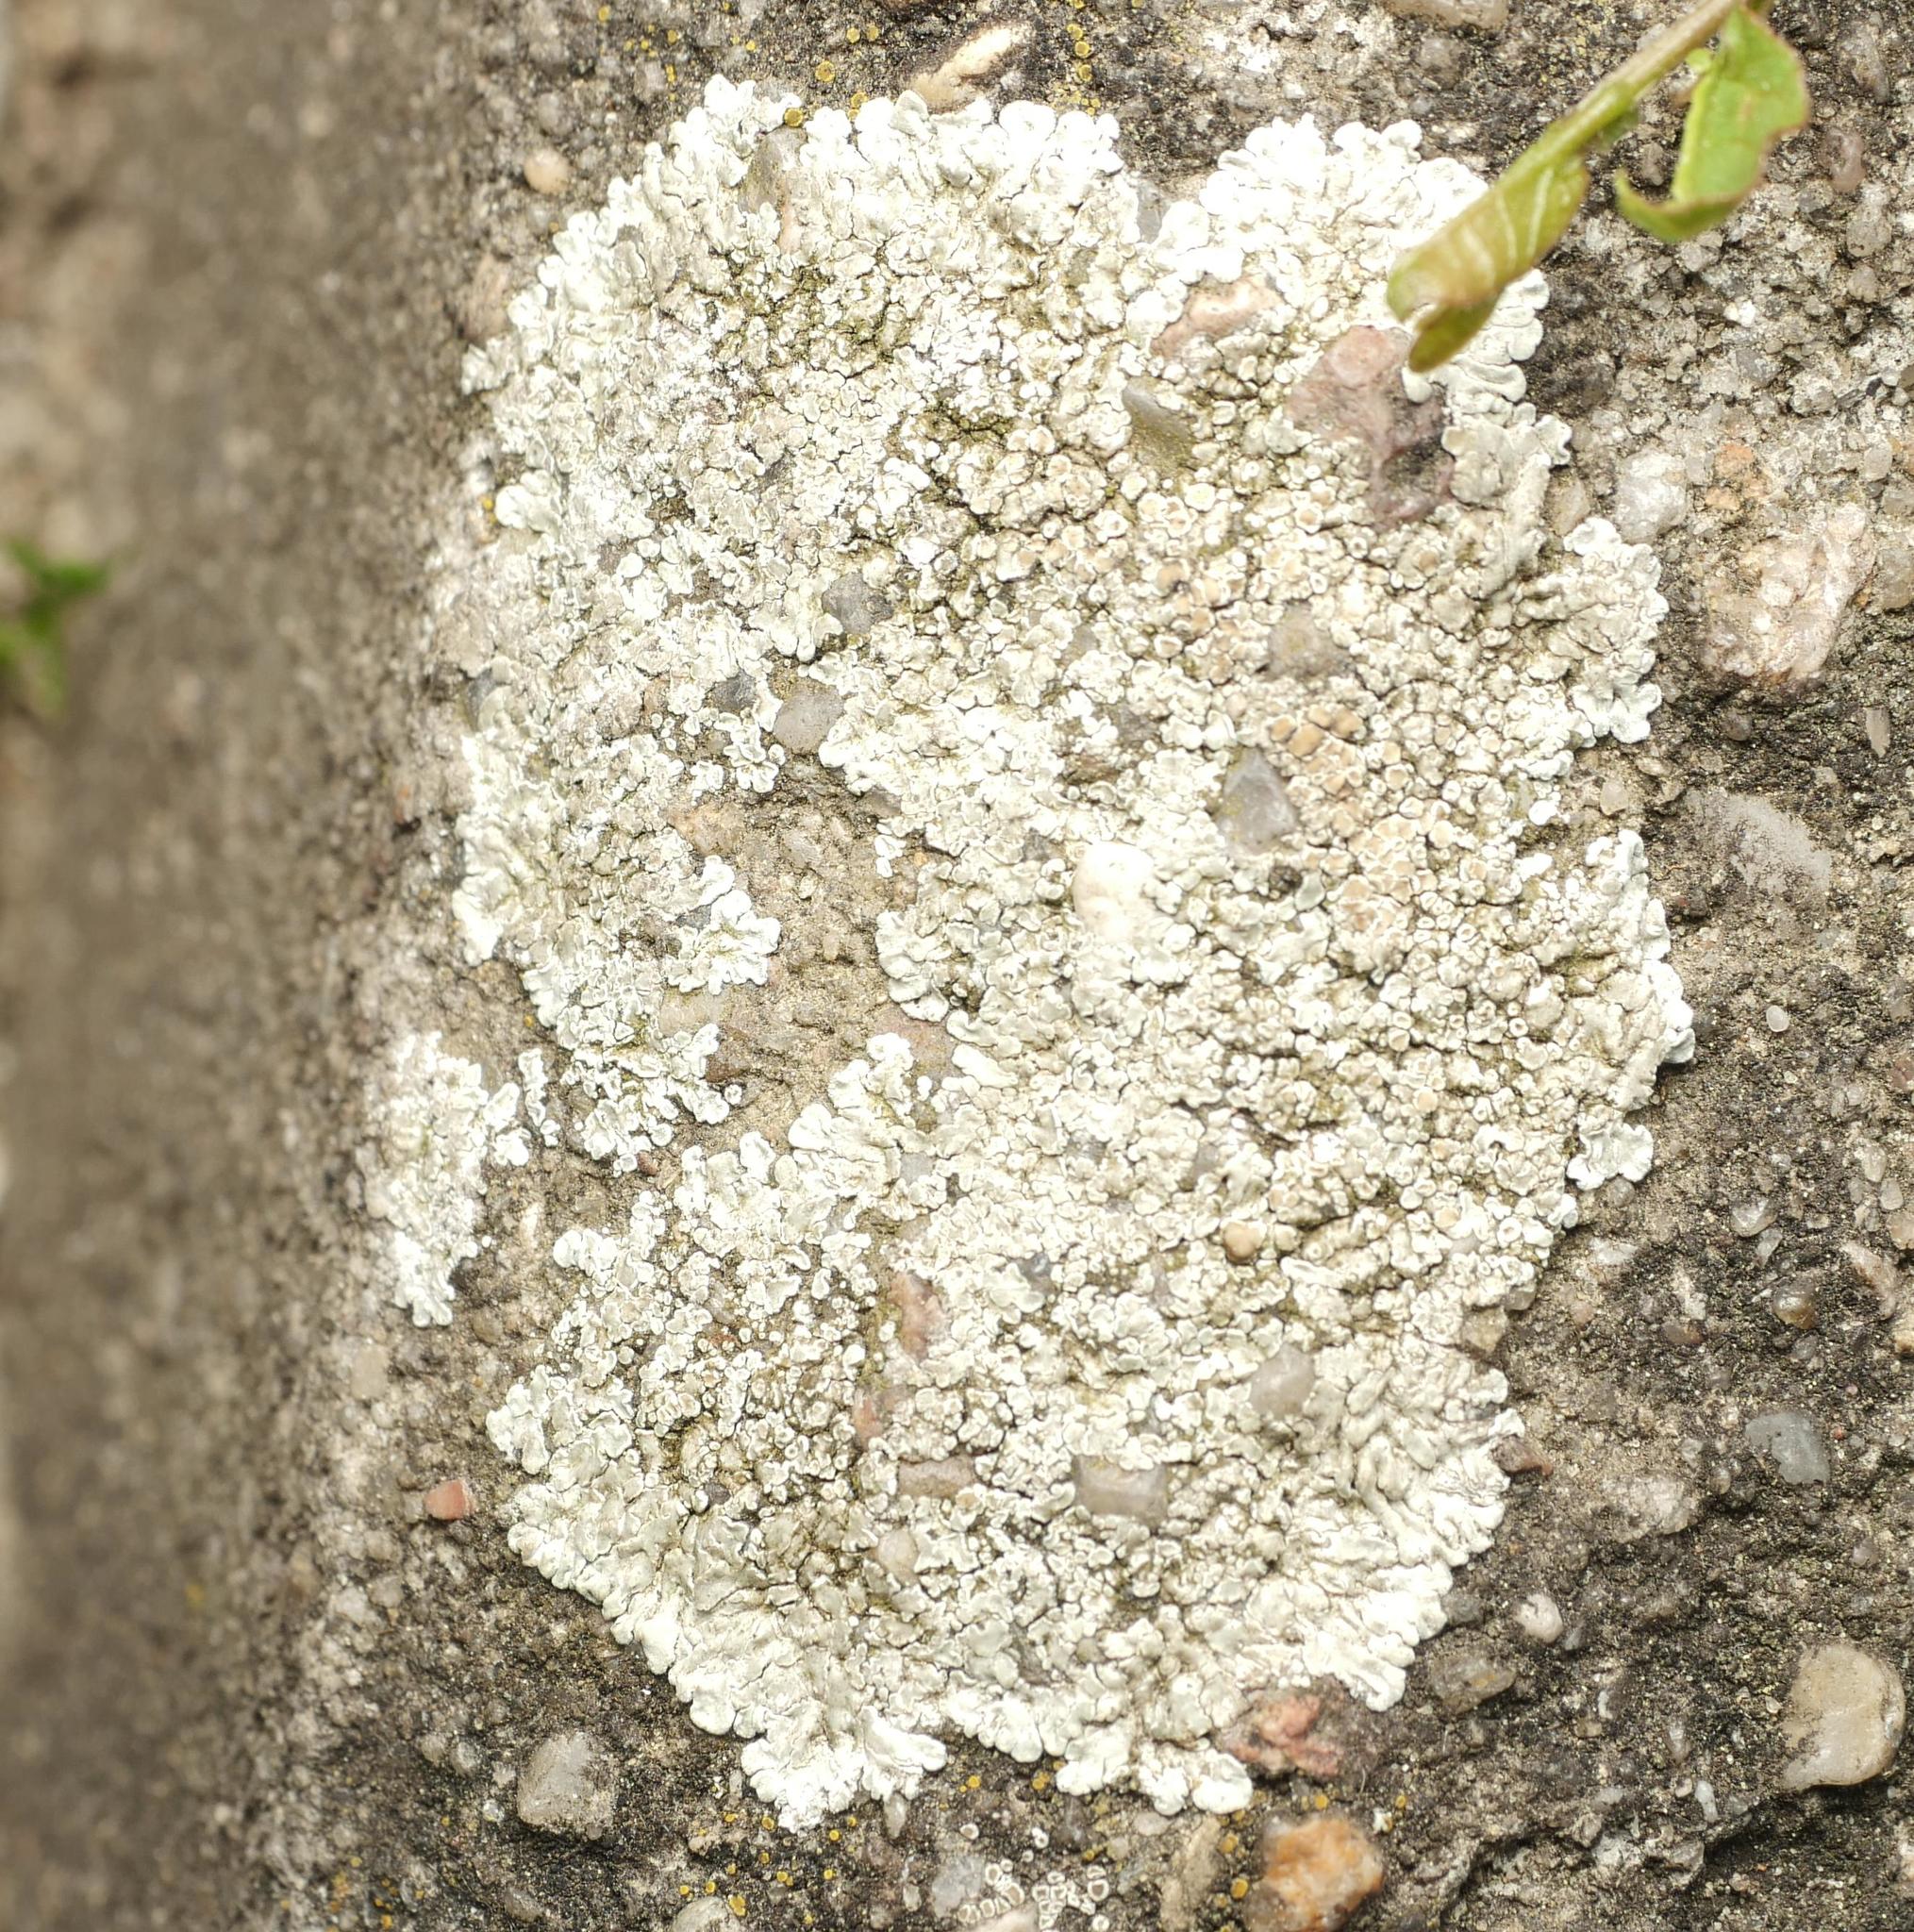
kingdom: Fungi
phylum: Ascomycota
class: Lecanoromycetes
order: Lecanorales
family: Lecanoraceae
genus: Protoparmeliopsis
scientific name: Protoparmeliopsis muralis
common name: Stonewall rim lichen
